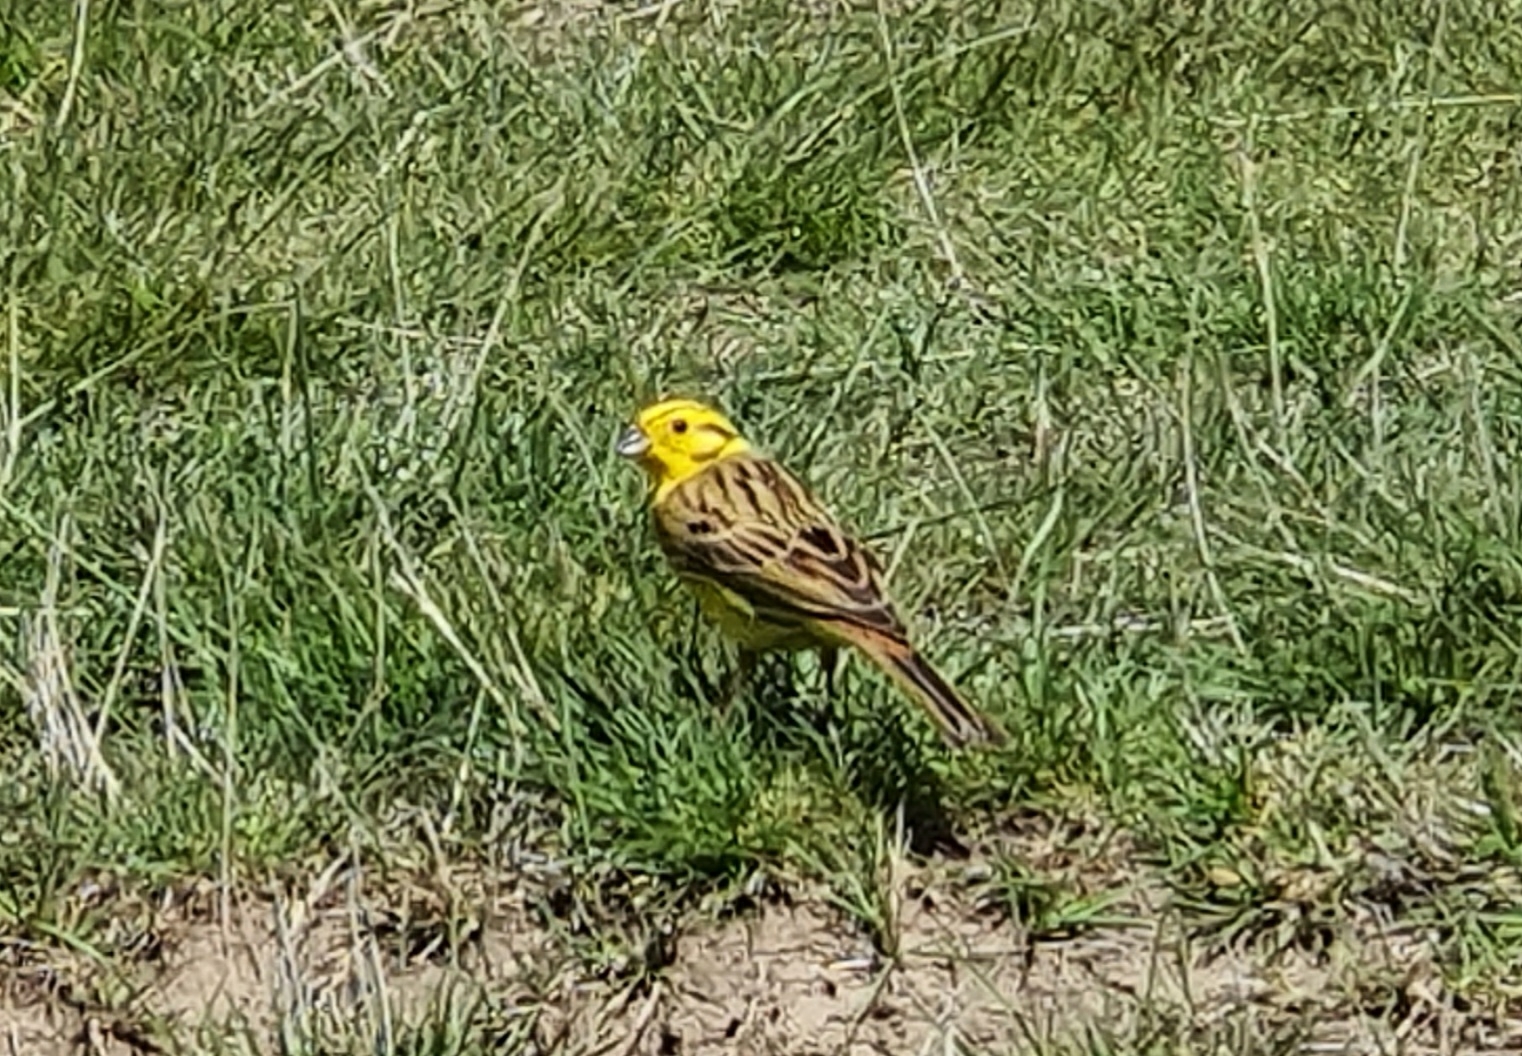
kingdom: Animalia
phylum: Chordata
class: Aves
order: Passeriformes
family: Emberizidae
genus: Emberiza
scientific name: Emberiza citrinella
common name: Yellowhammer
